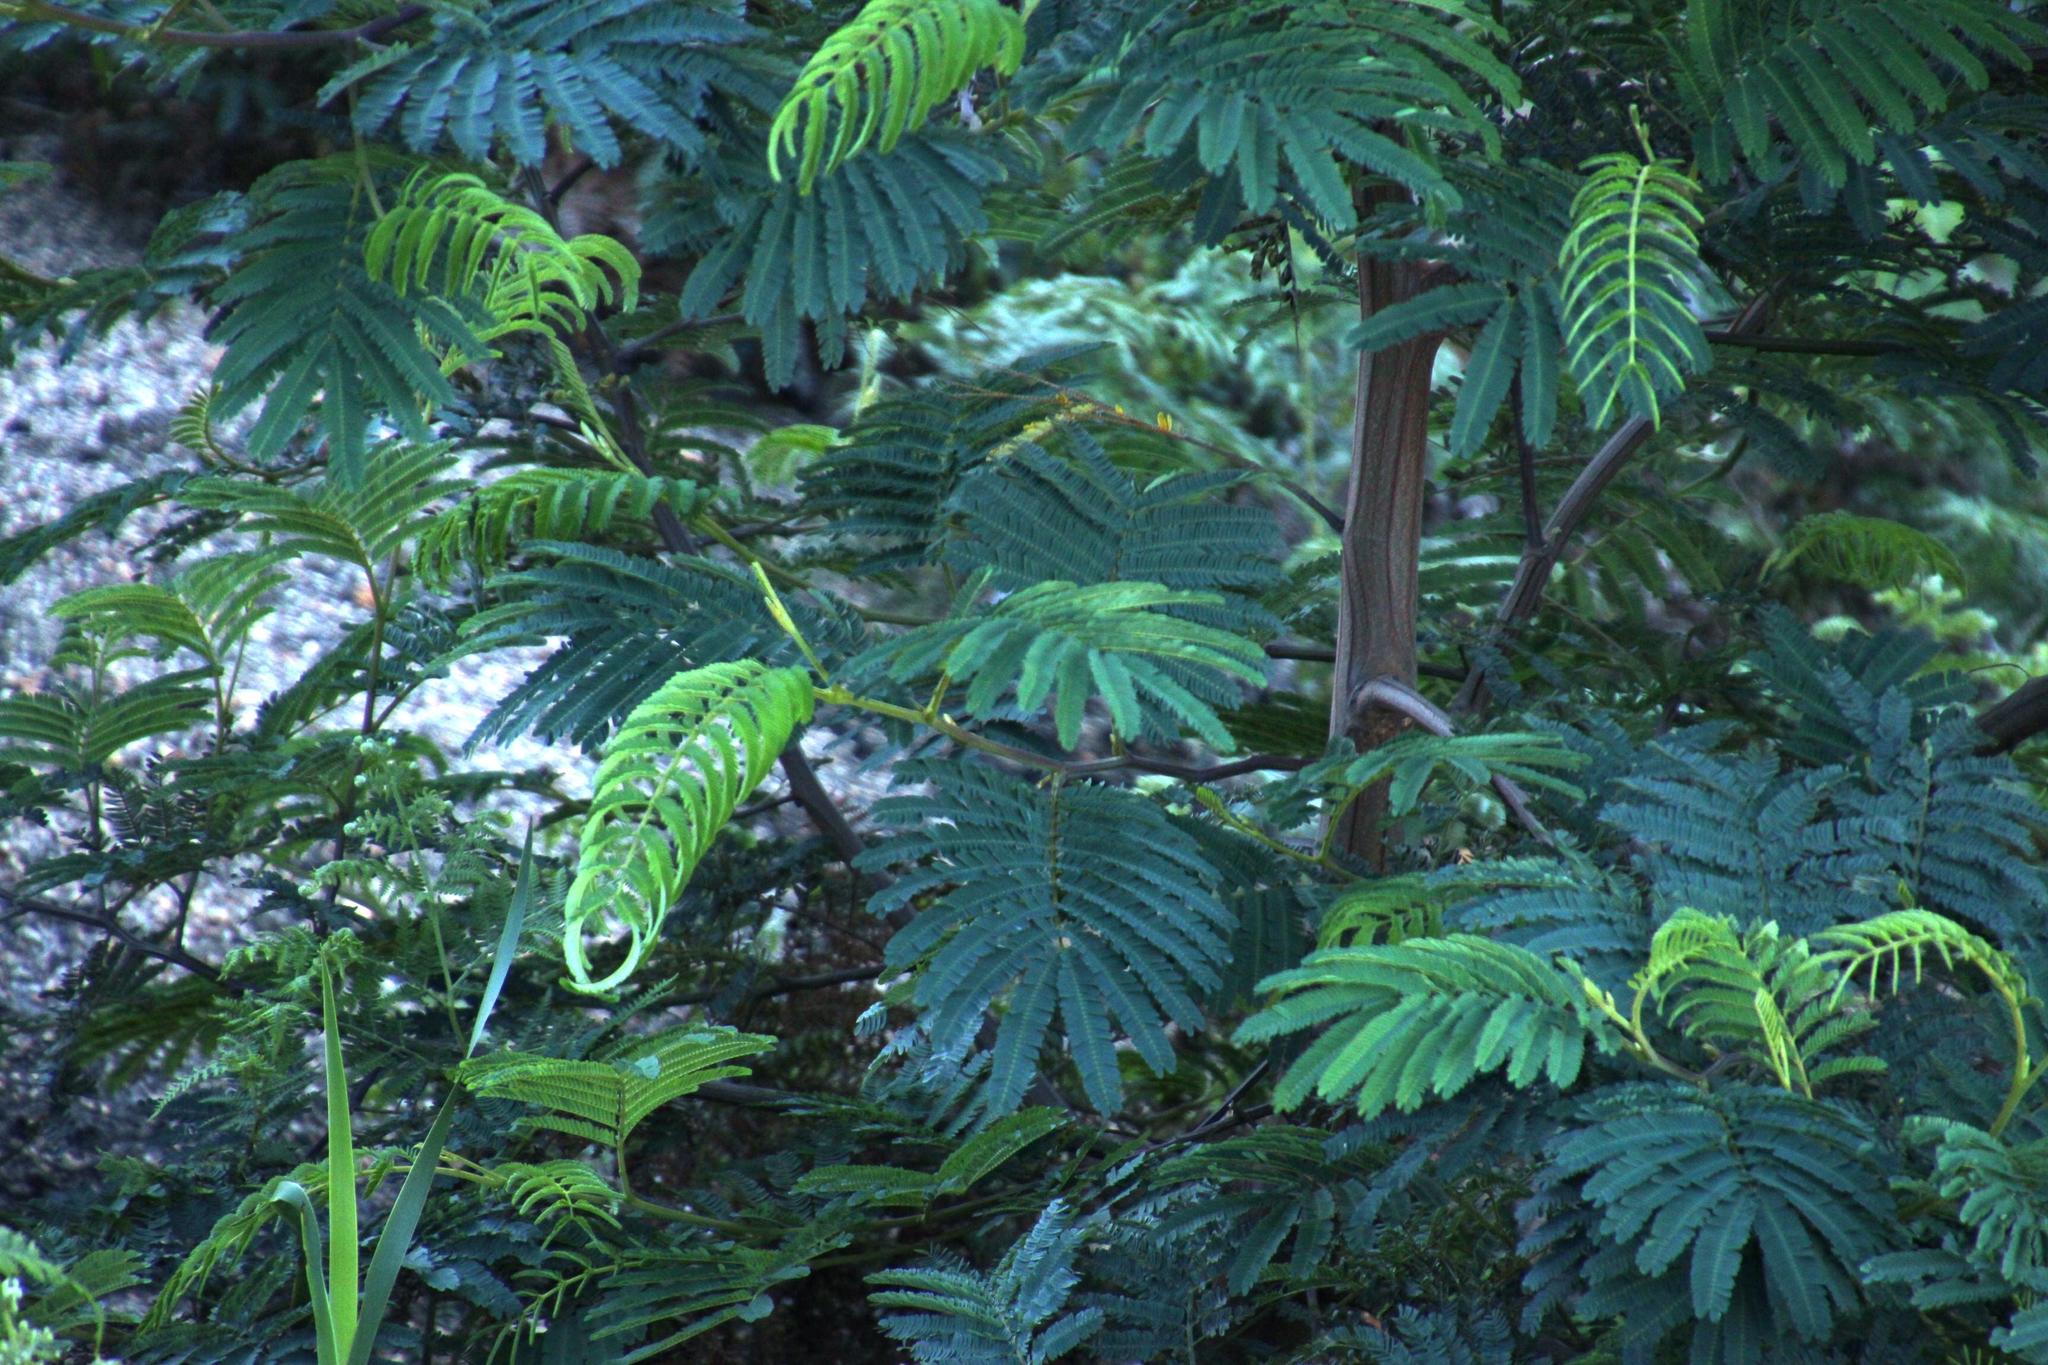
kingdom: Plantae
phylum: Tracheophyta
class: Magnoliopsida
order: Fabales
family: Fabaceae
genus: Paraserianthes
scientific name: Paraserianthes lophantha
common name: Plume albizia
